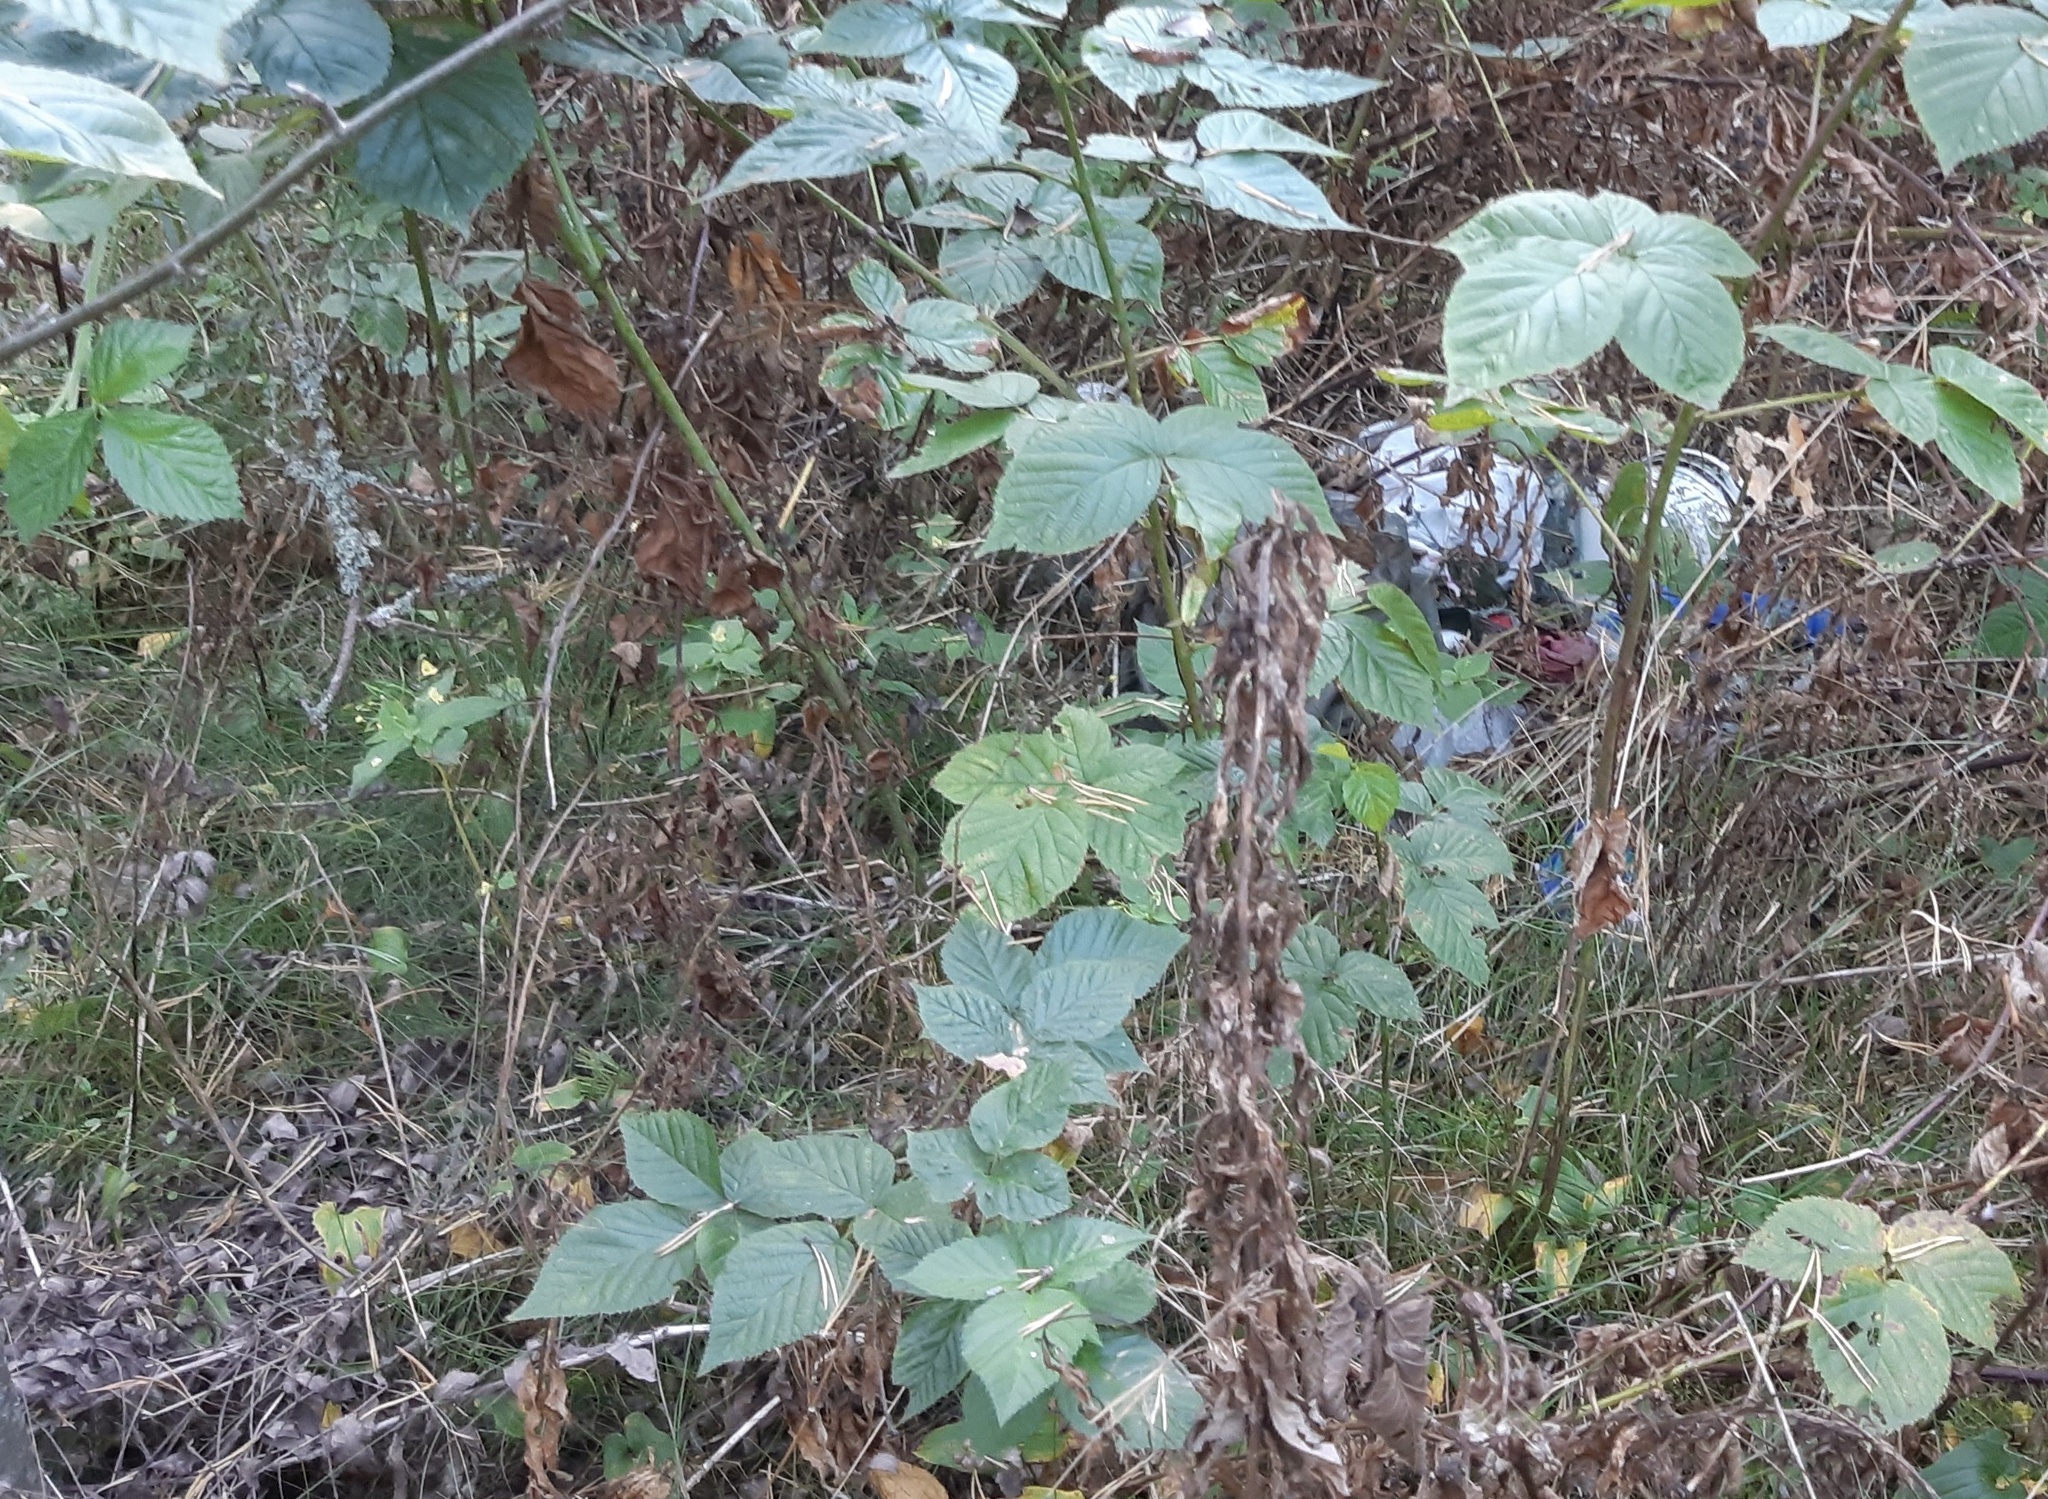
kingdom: Plantae
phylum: Tracheophyta
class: Magnoliopsida
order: Rosales
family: Rosaceae
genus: Rubus
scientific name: Rubus polonicus
